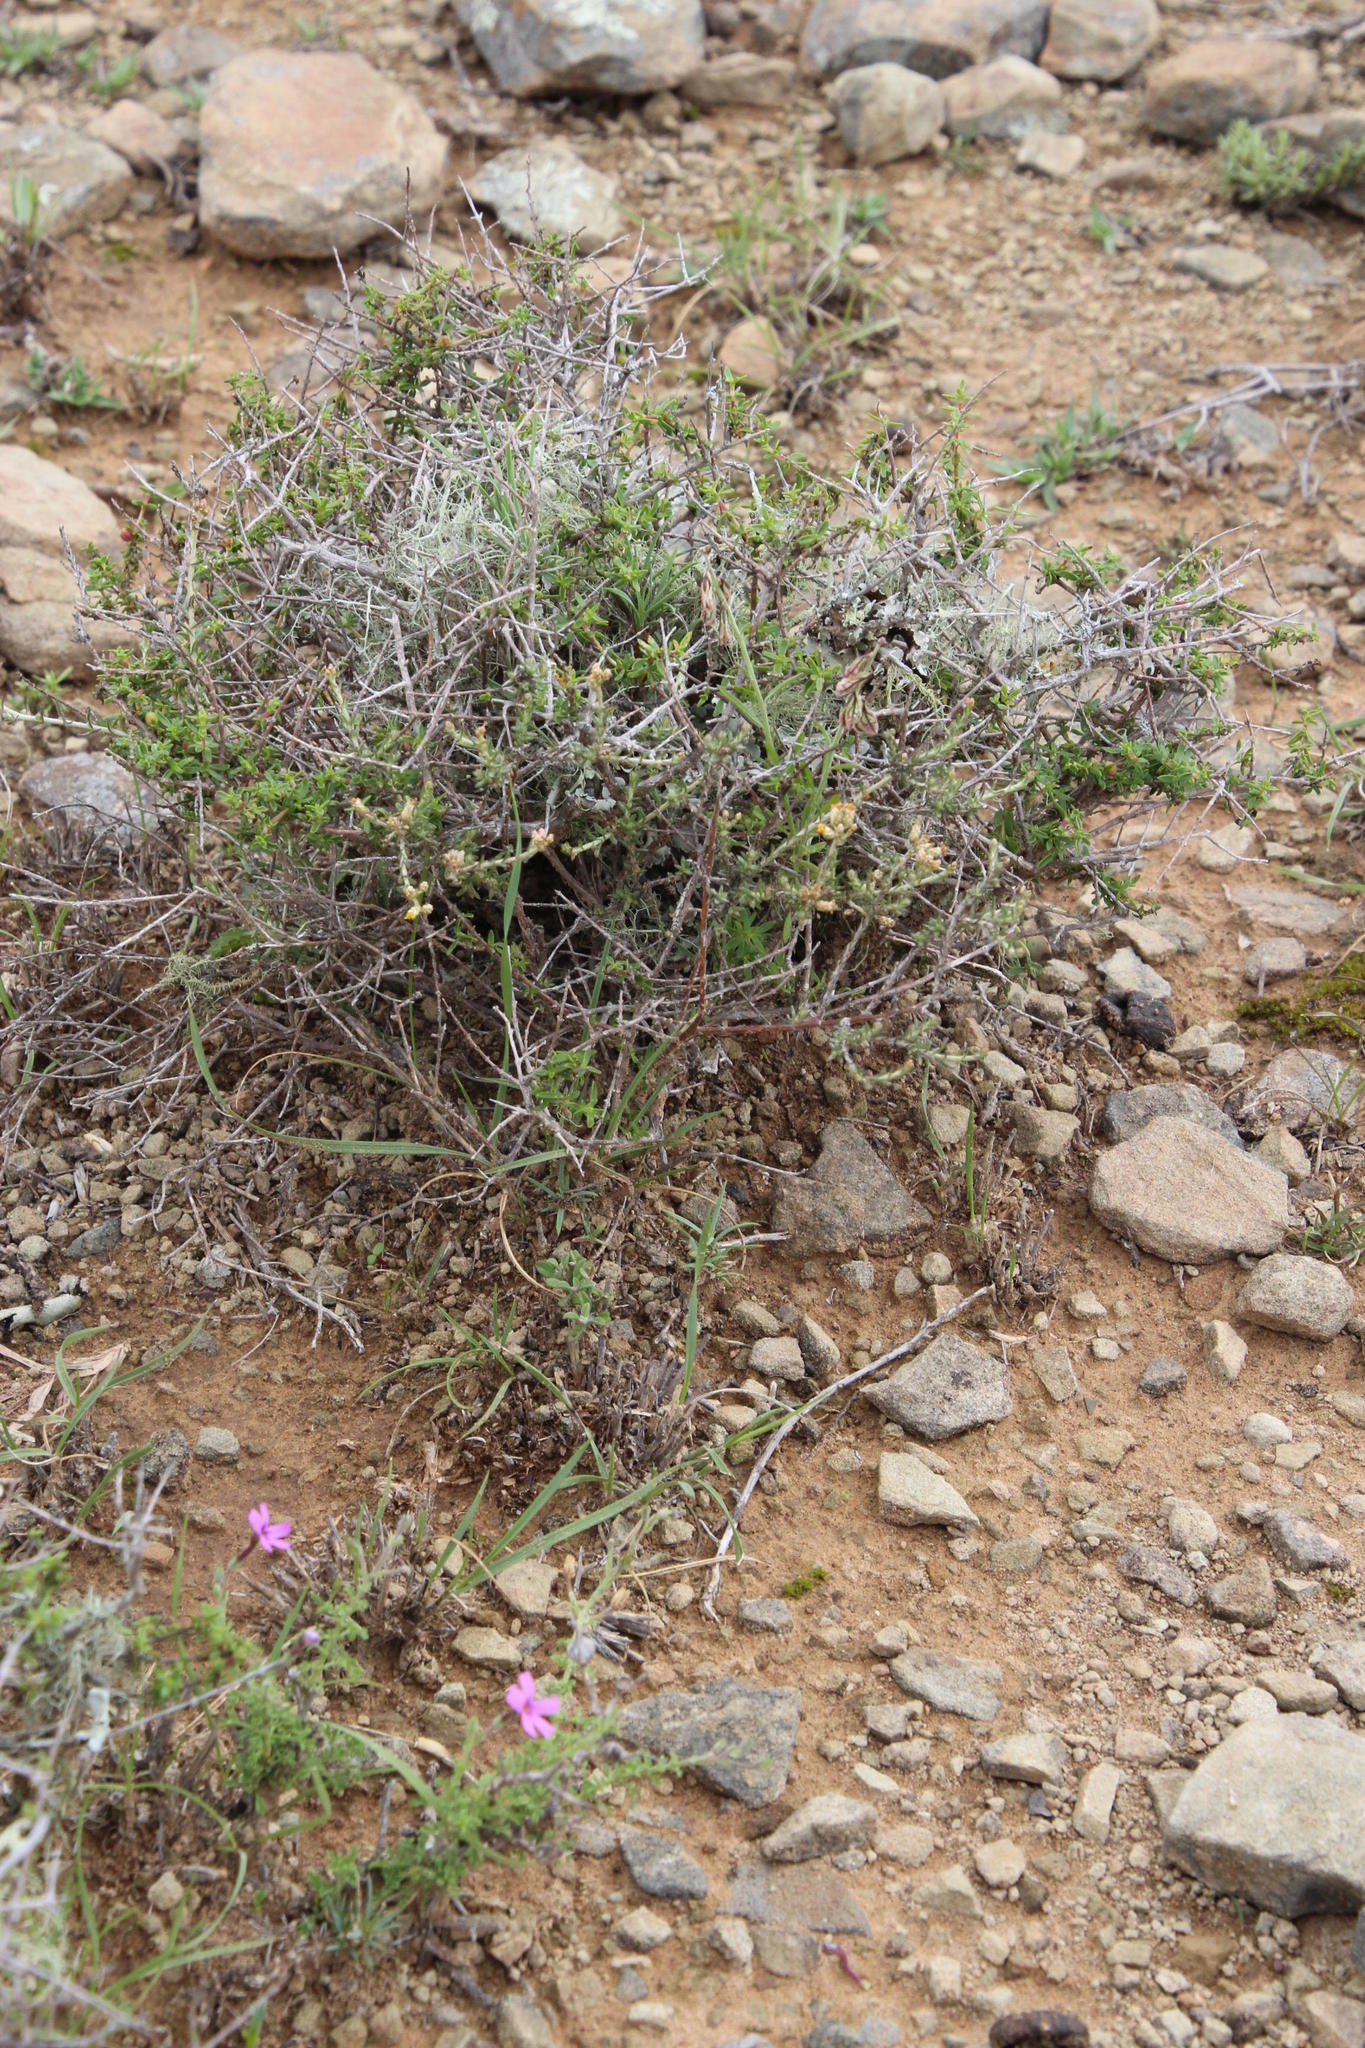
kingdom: Plantae
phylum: Tracheophyta
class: Magnoliopsida
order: Asterales
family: Asteraceae
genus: Helichrysum
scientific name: Helichrysum rosum
